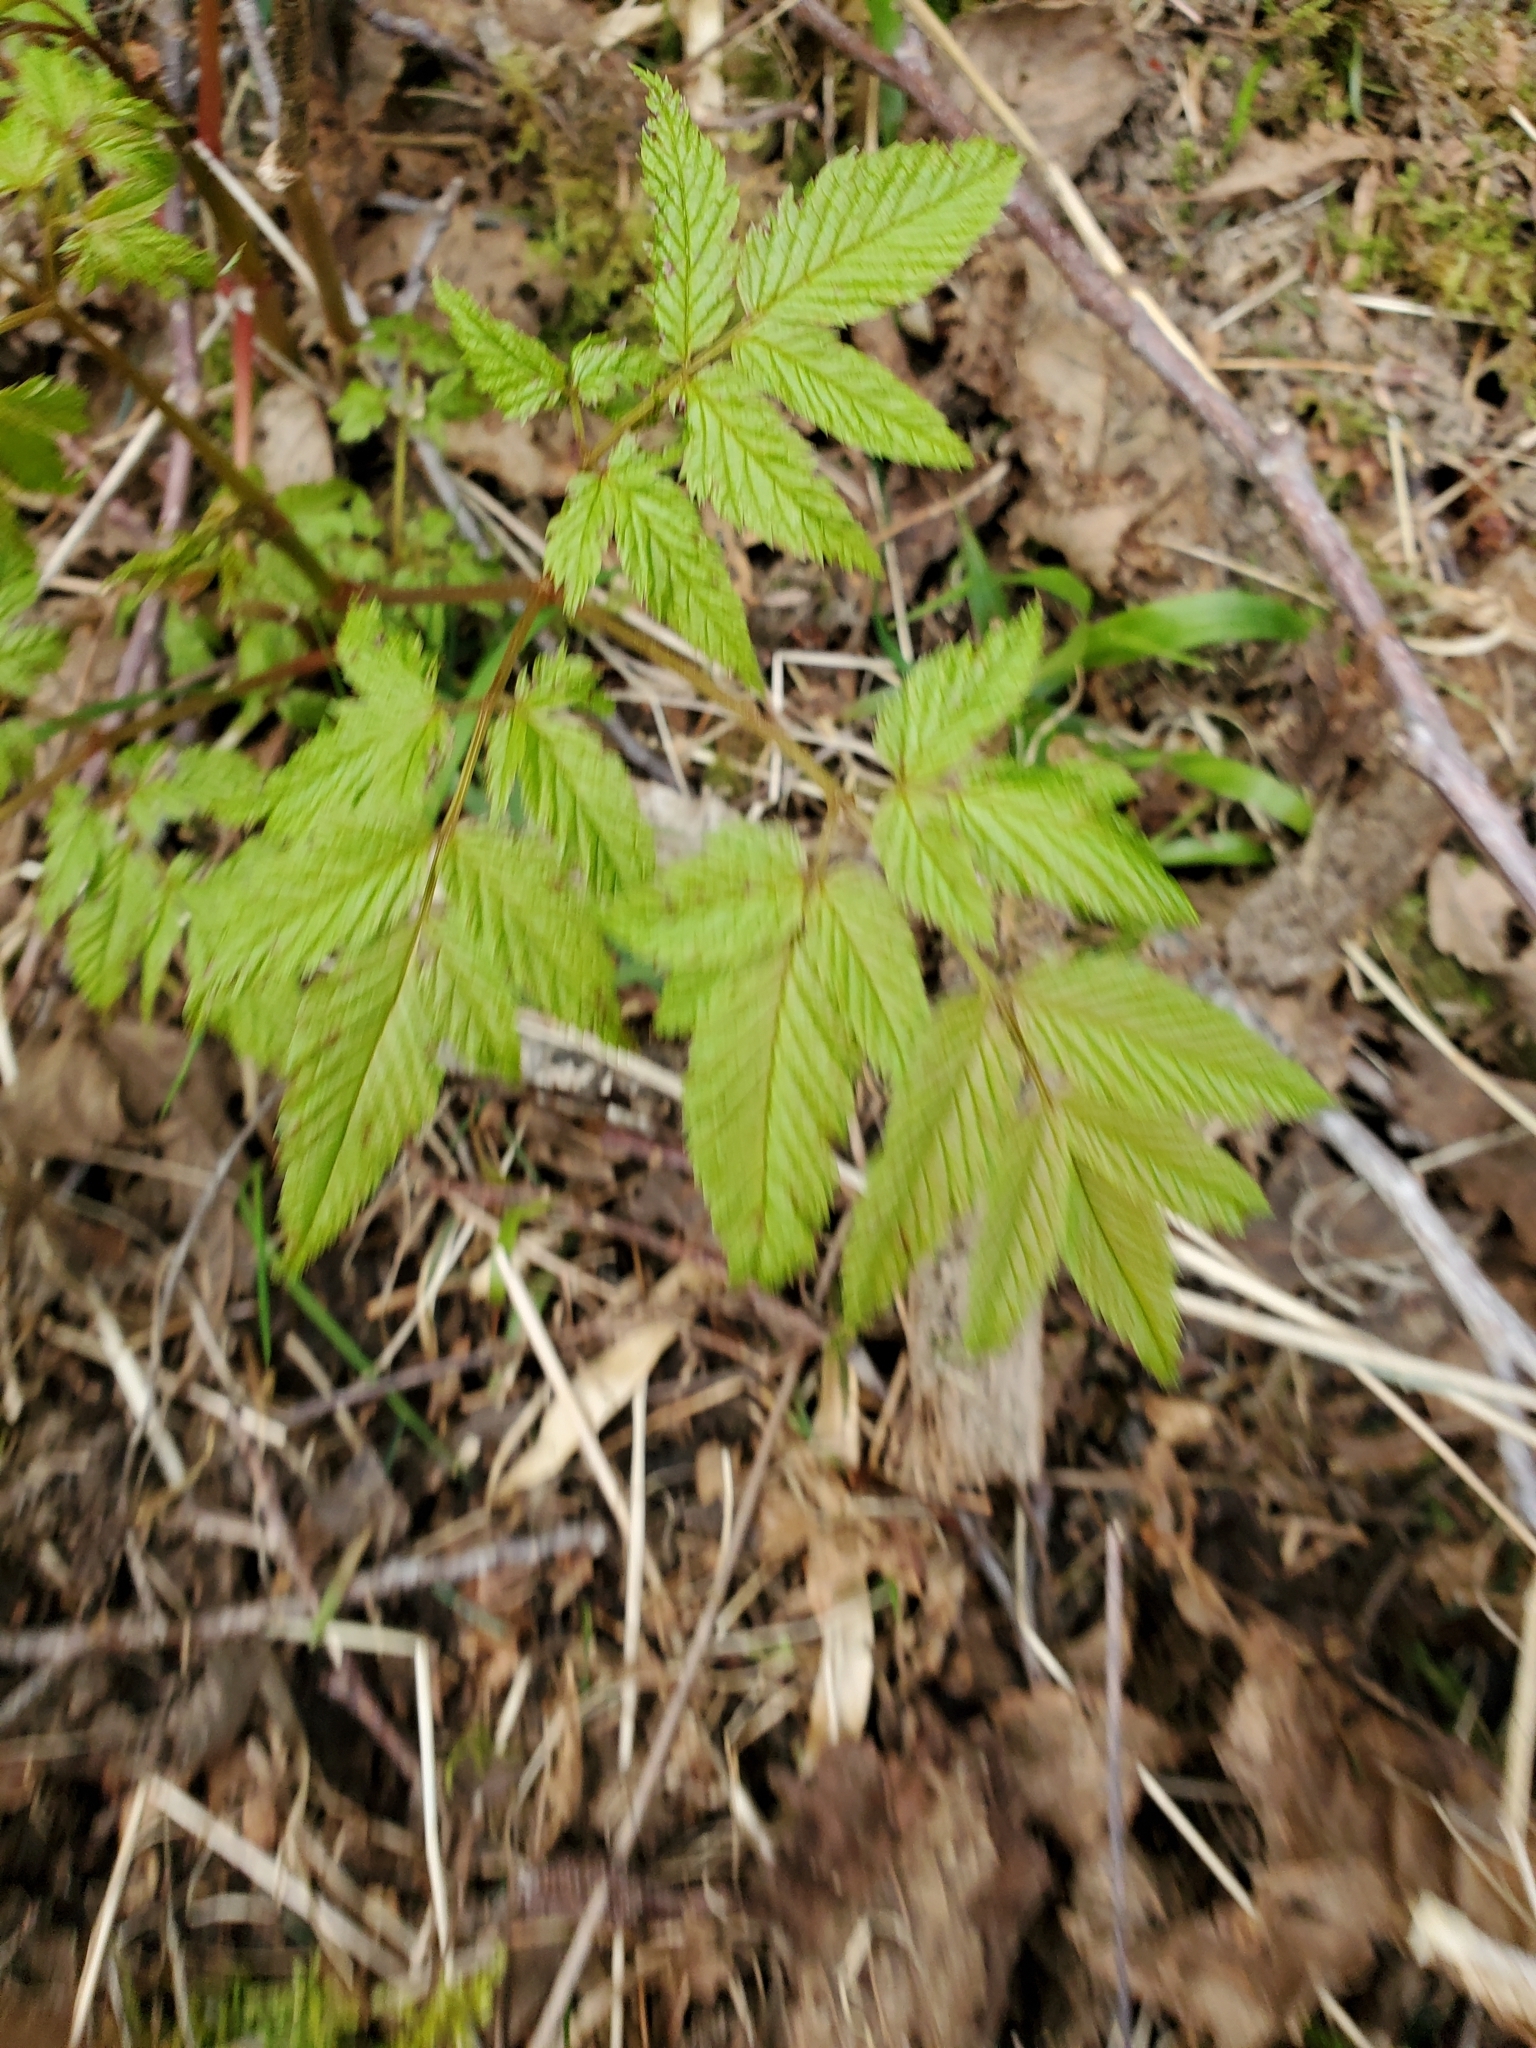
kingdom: Plantae
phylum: Tracheophyta
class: Magnoliopsida
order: Rosales
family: Rosaceae
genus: Aruncus
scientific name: Aruncus dioicus
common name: Buck's-beard
